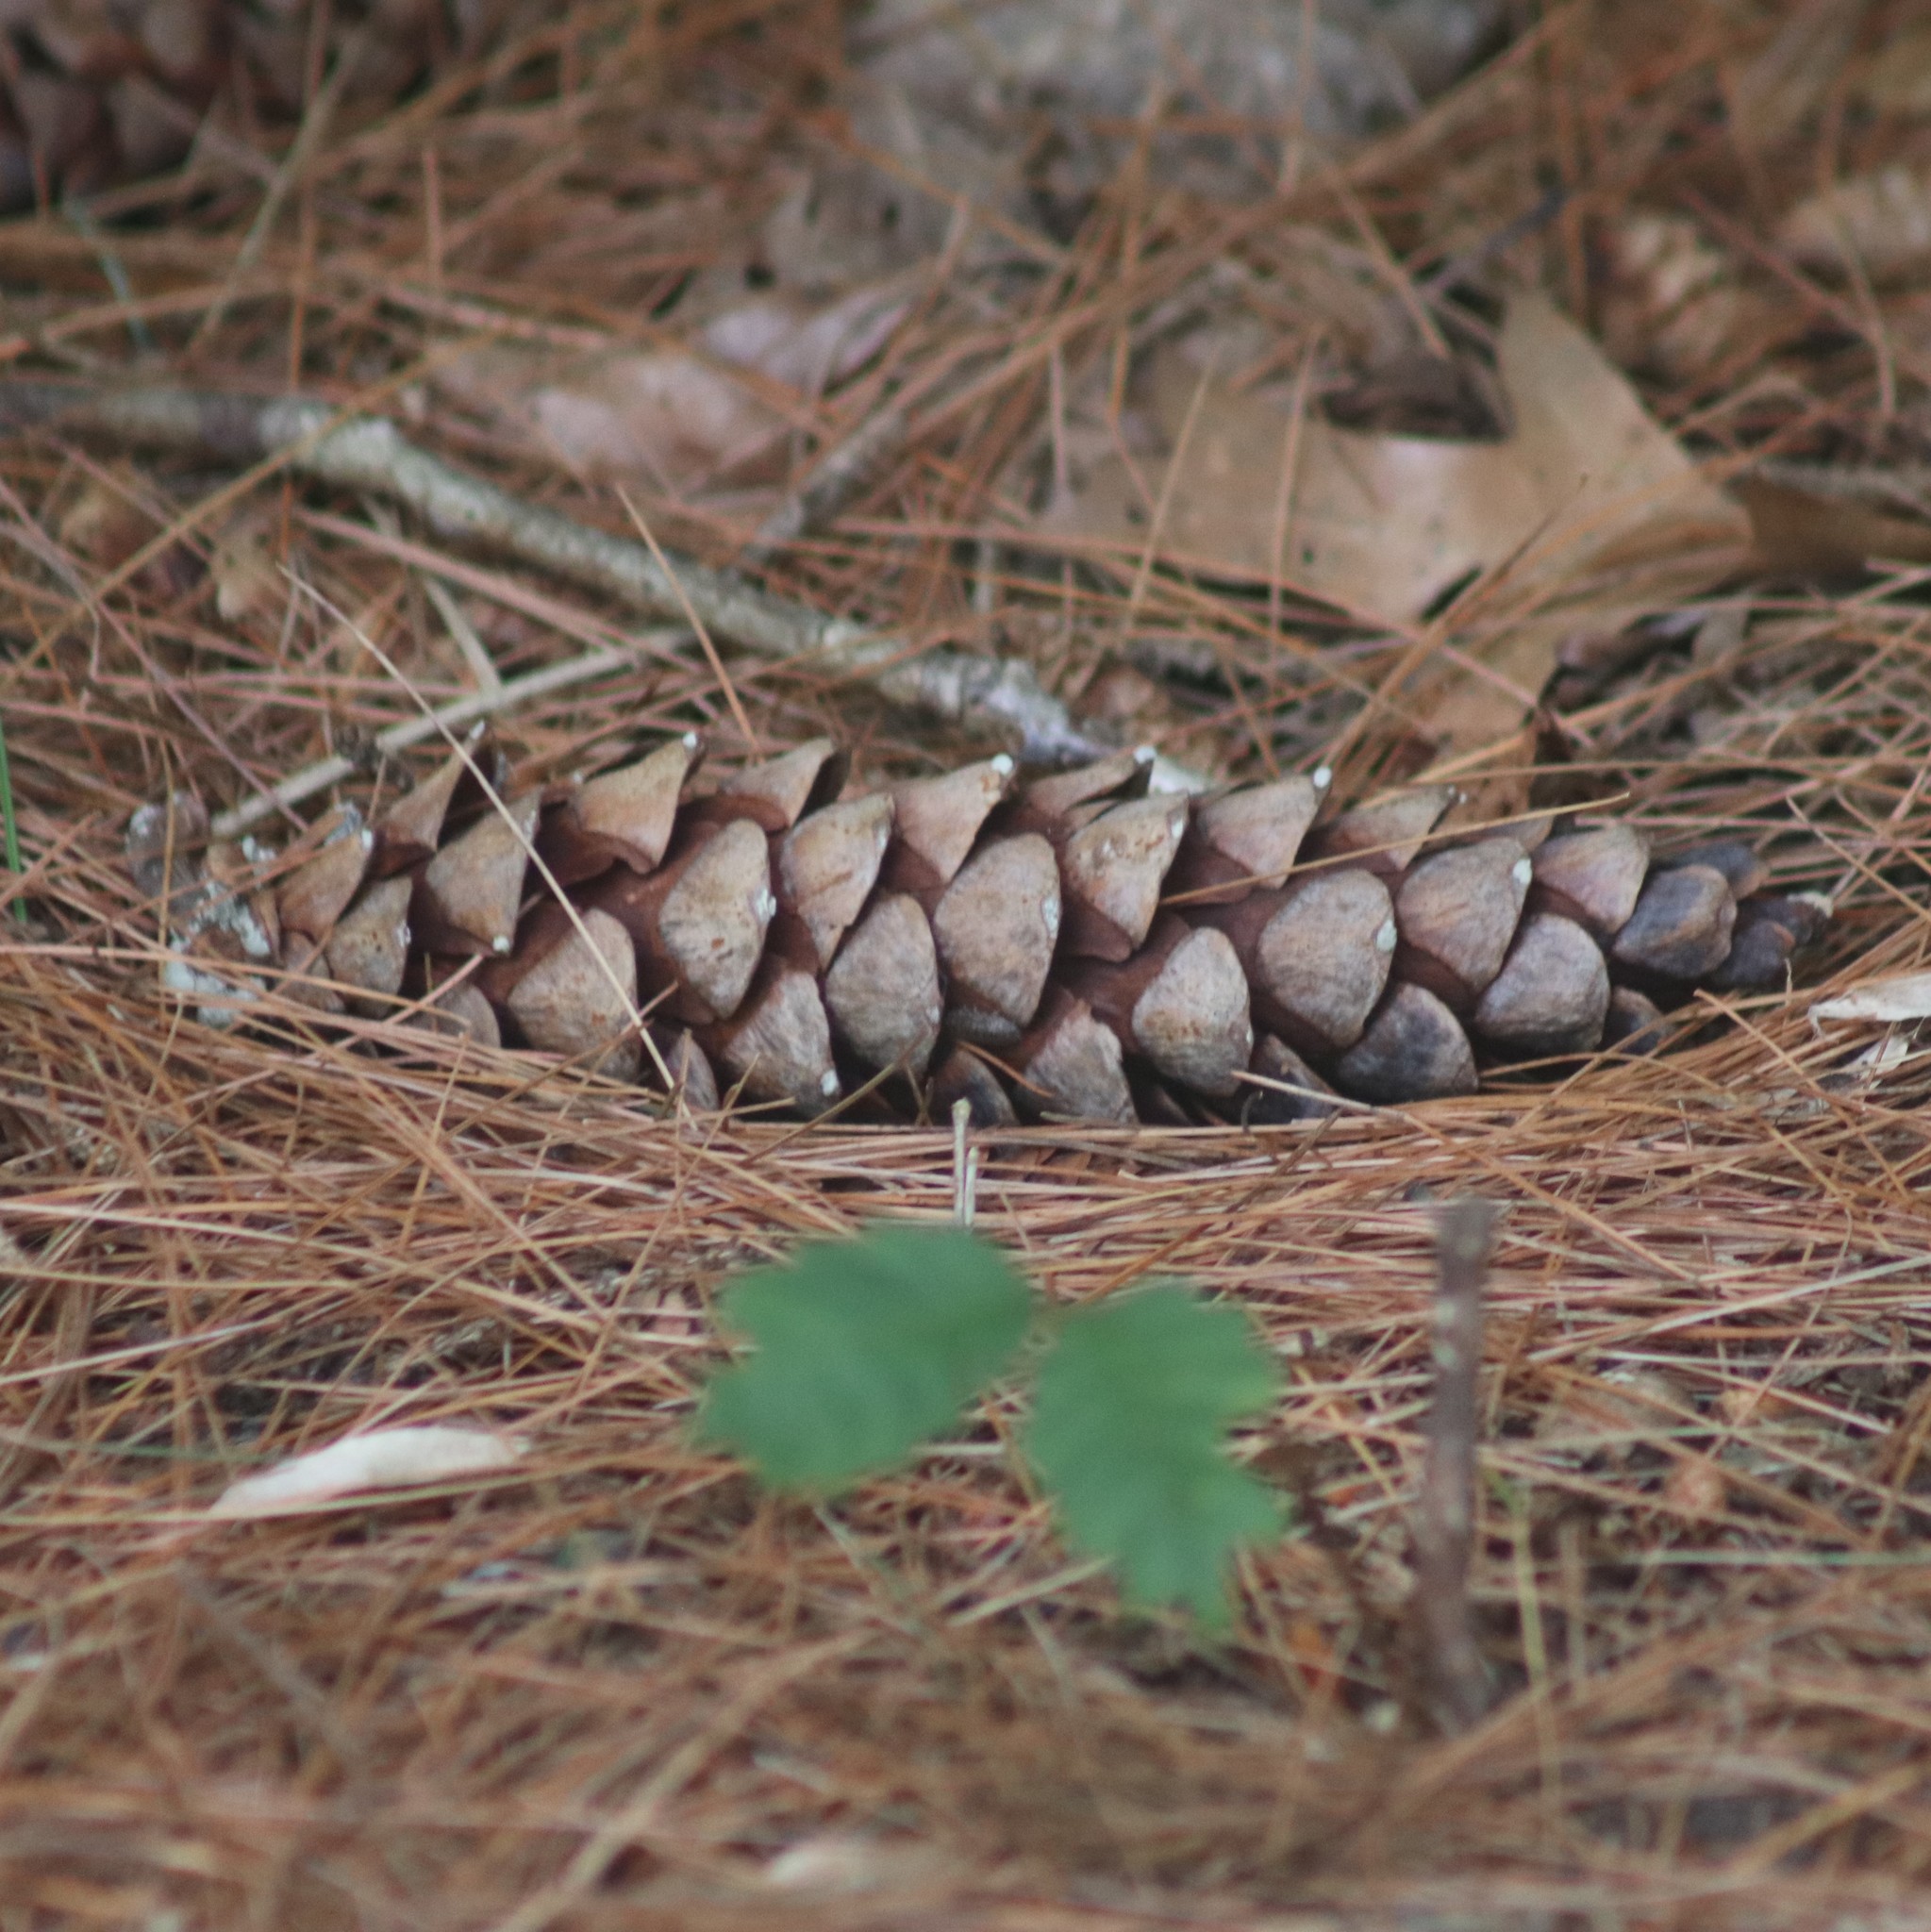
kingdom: Plantae
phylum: Tracheophyta
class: Pinopsida
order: Pinales
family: Pinaceae
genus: Pinus
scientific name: Pinus strobus
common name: Weymouth pine
